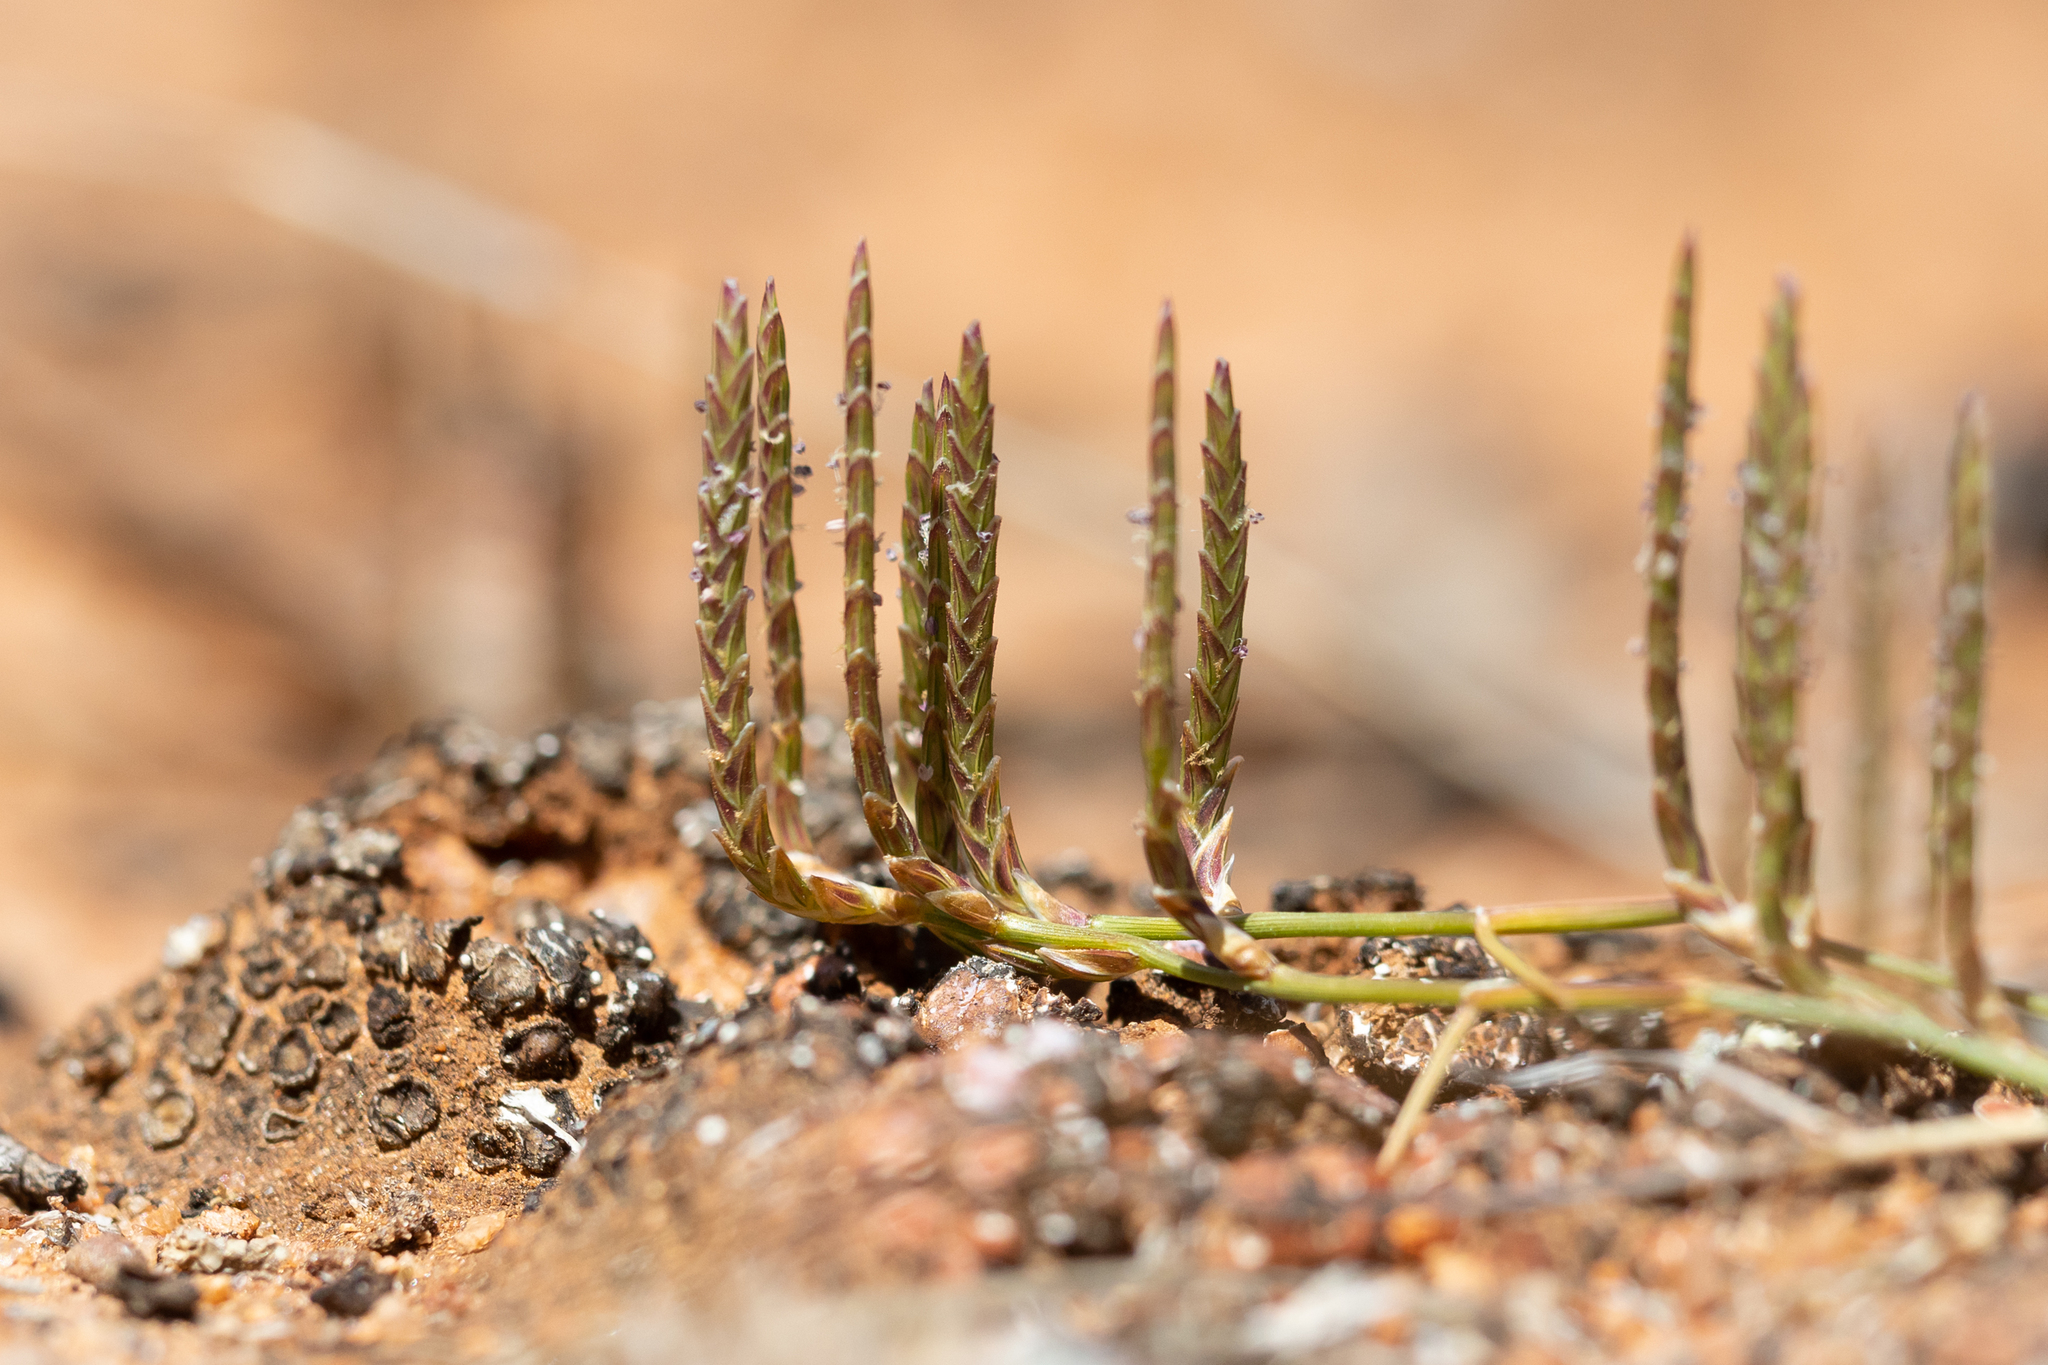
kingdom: Plantae
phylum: Tracheophyta
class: Liliopsida
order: Poales
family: Poaceae
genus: Eragrostis
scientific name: Eragrostis dielsii
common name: Lovegrass
